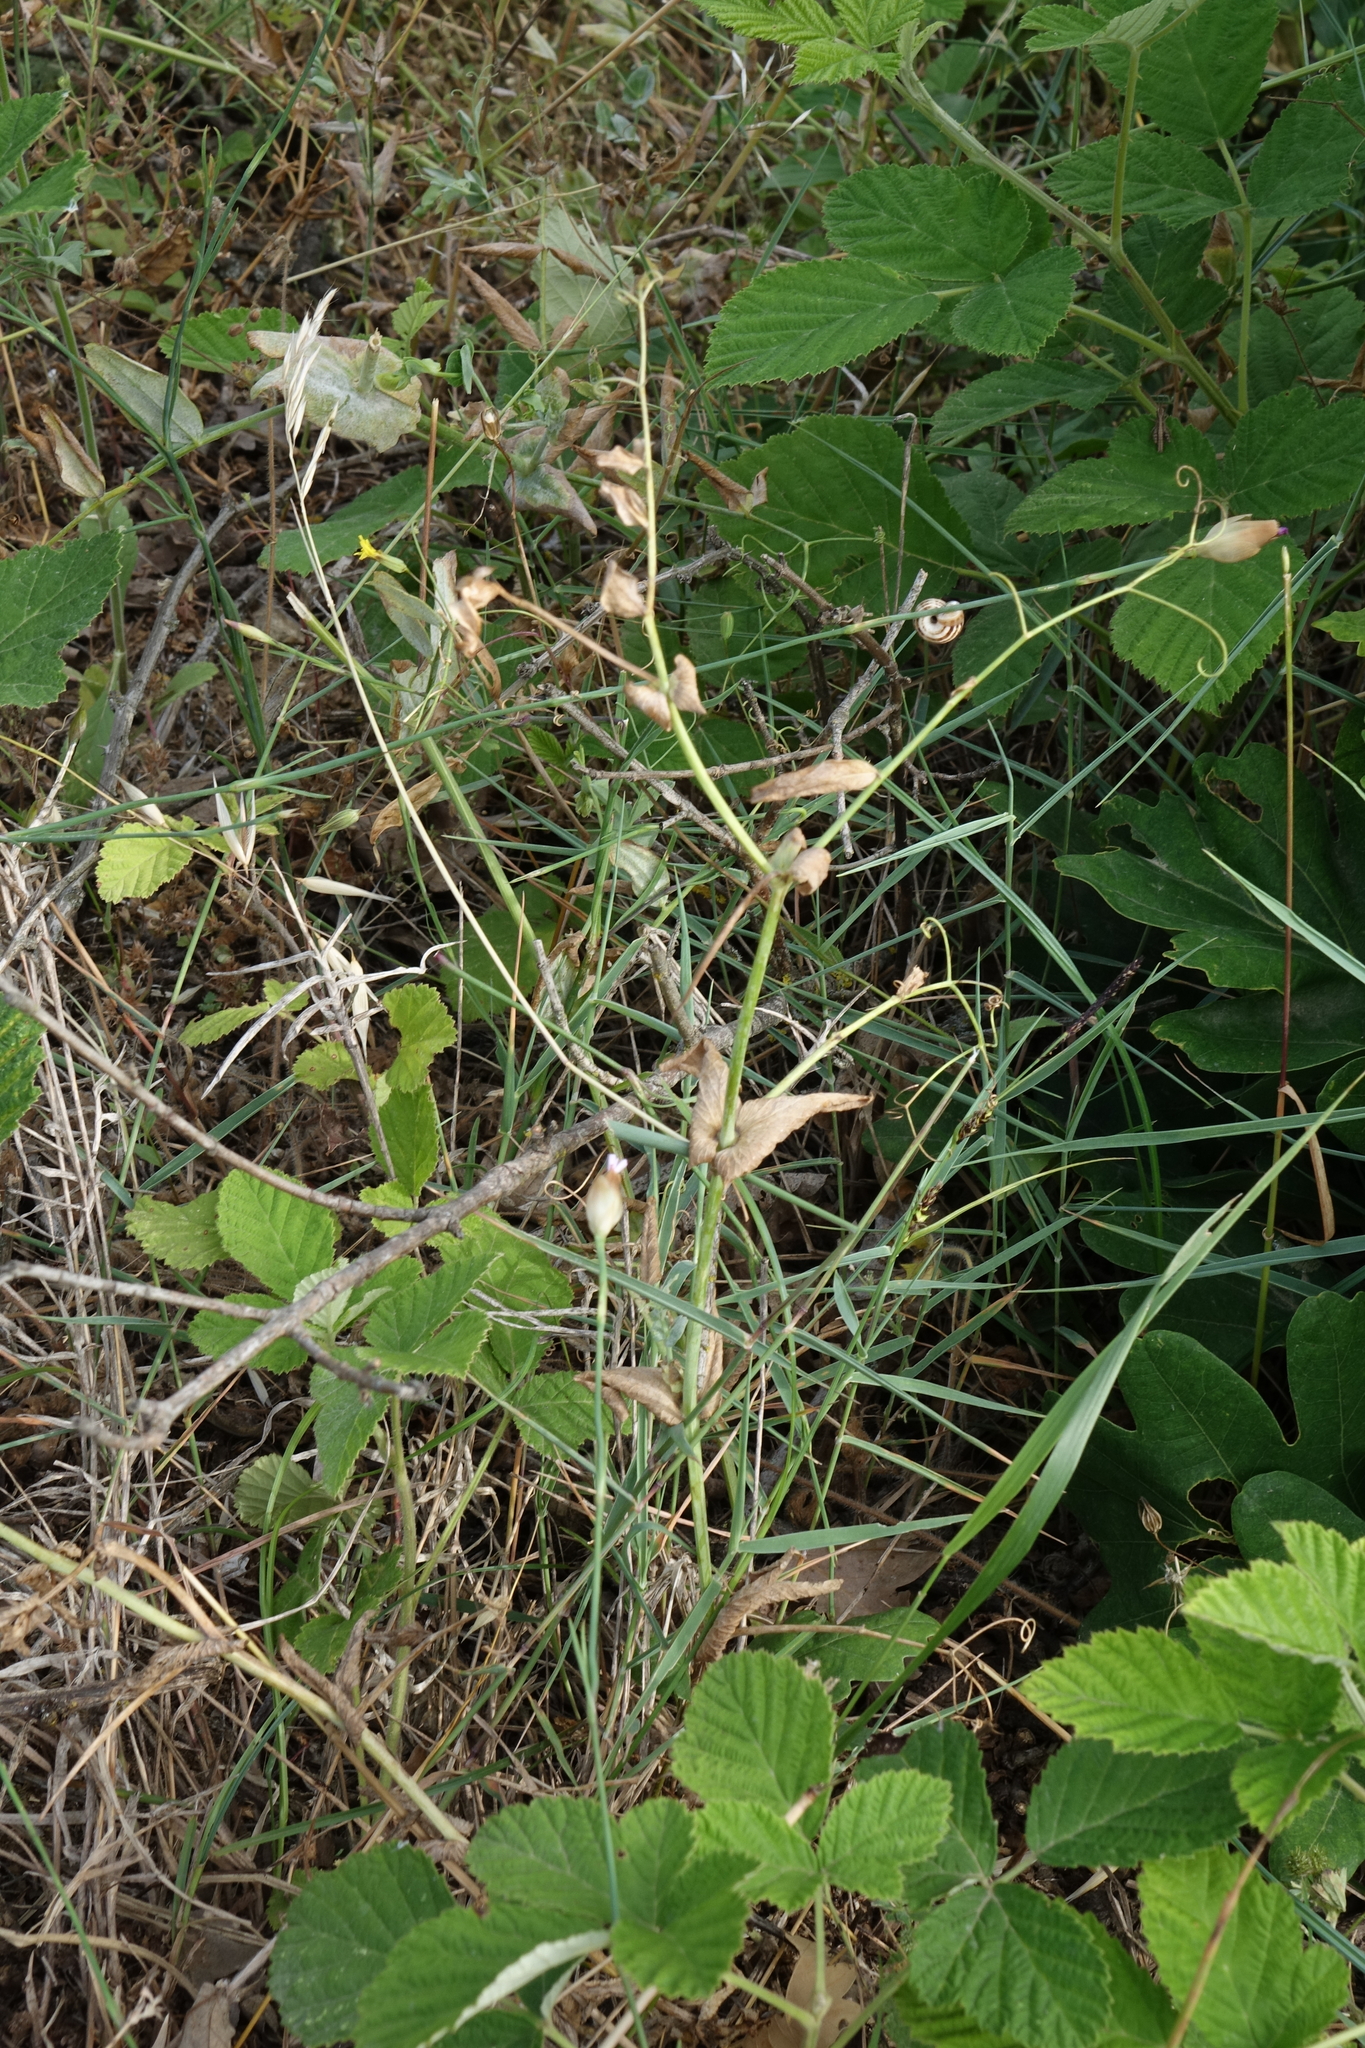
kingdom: Plantae
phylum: Tracheophyta
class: Magnoliopsida
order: Fabales
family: Fabaceae
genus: Lathyrus
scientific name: Lathyrus oleraceus
